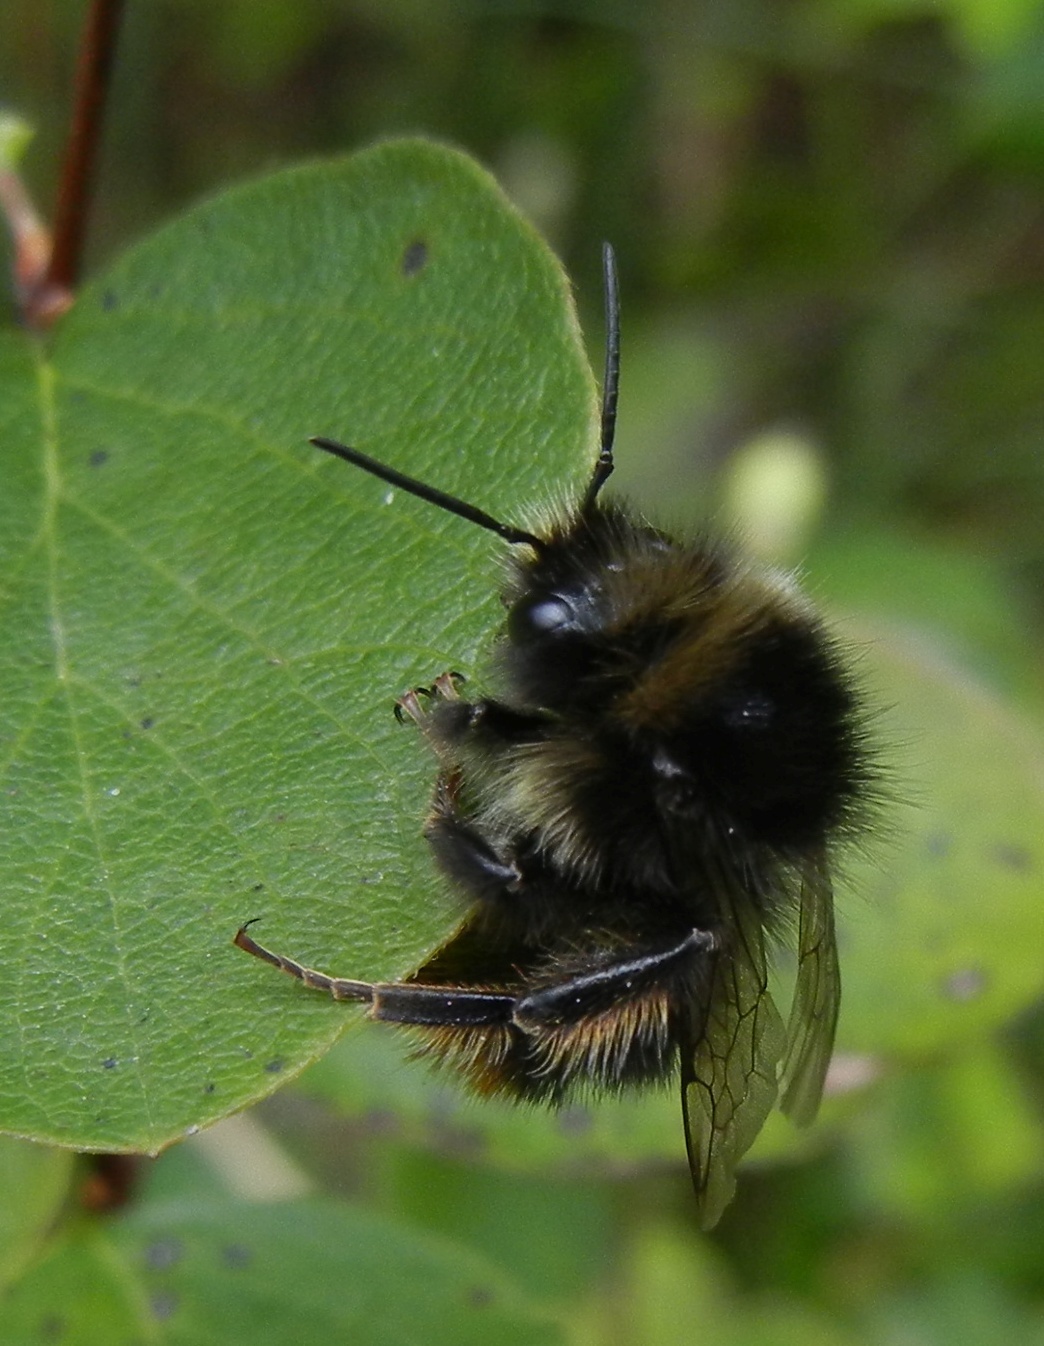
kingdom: Animalia
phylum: Arthropoda
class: Insecta
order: Hymenoptera
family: Apidae
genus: Bombus
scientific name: Bombus lapidarius
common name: Large red-tailed humble-bee
